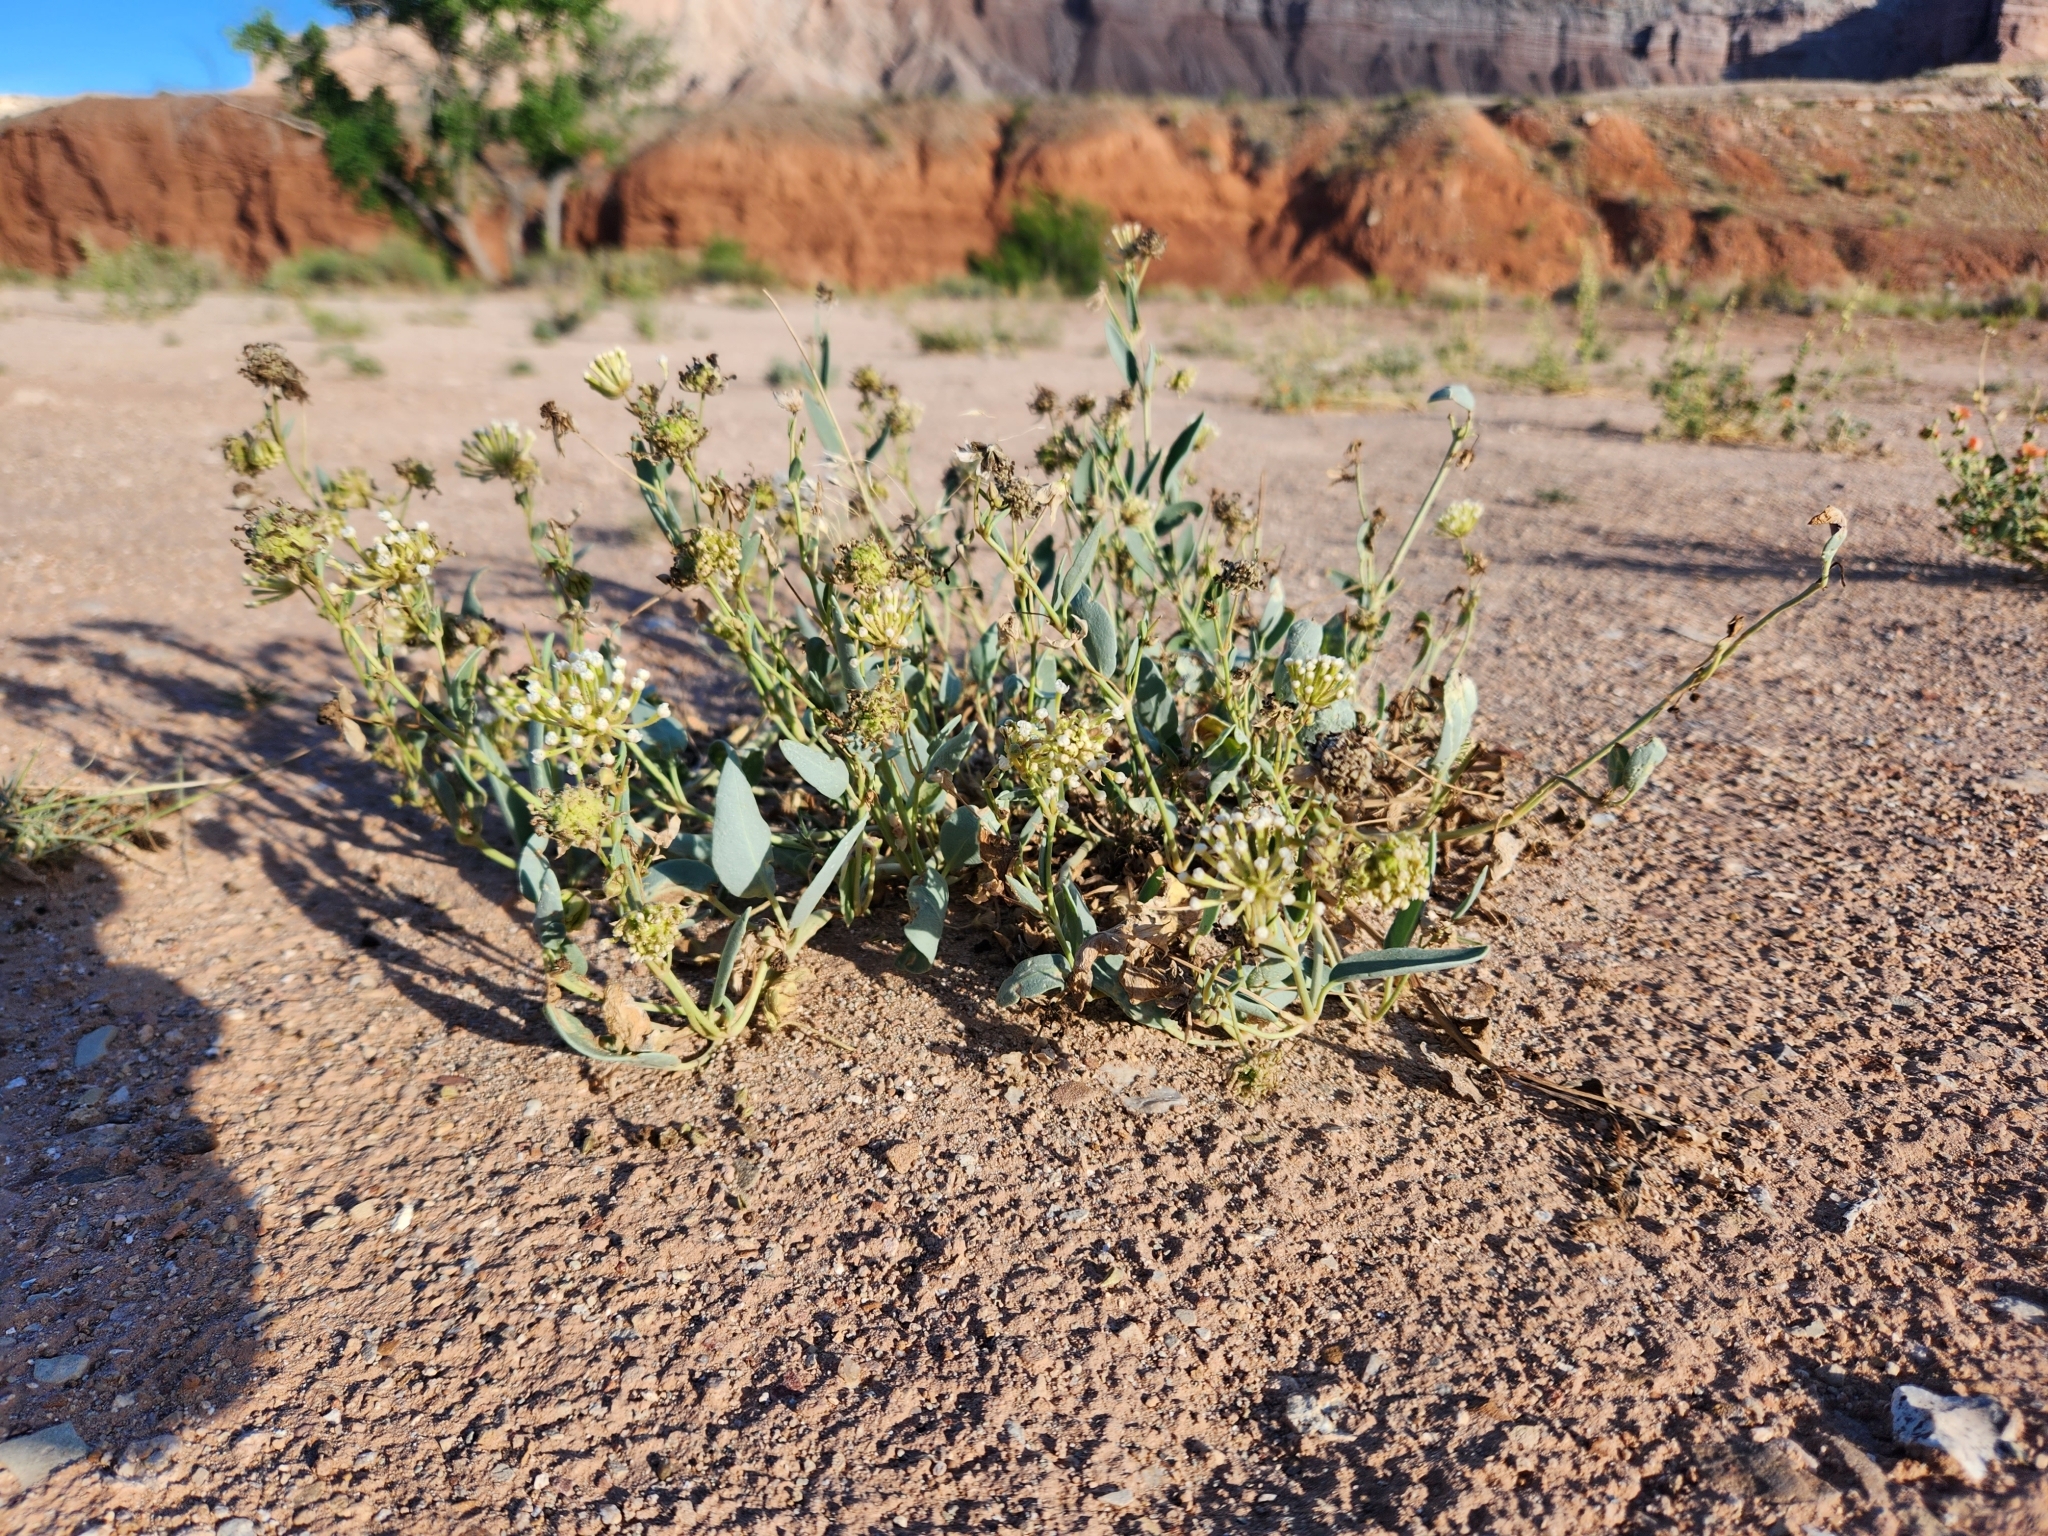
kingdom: Plantae
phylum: Tracheophyta
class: Magnoliopsida
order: Caryophyllales
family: Nyctaginaceae
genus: Abronia
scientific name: Abronia elliptica
